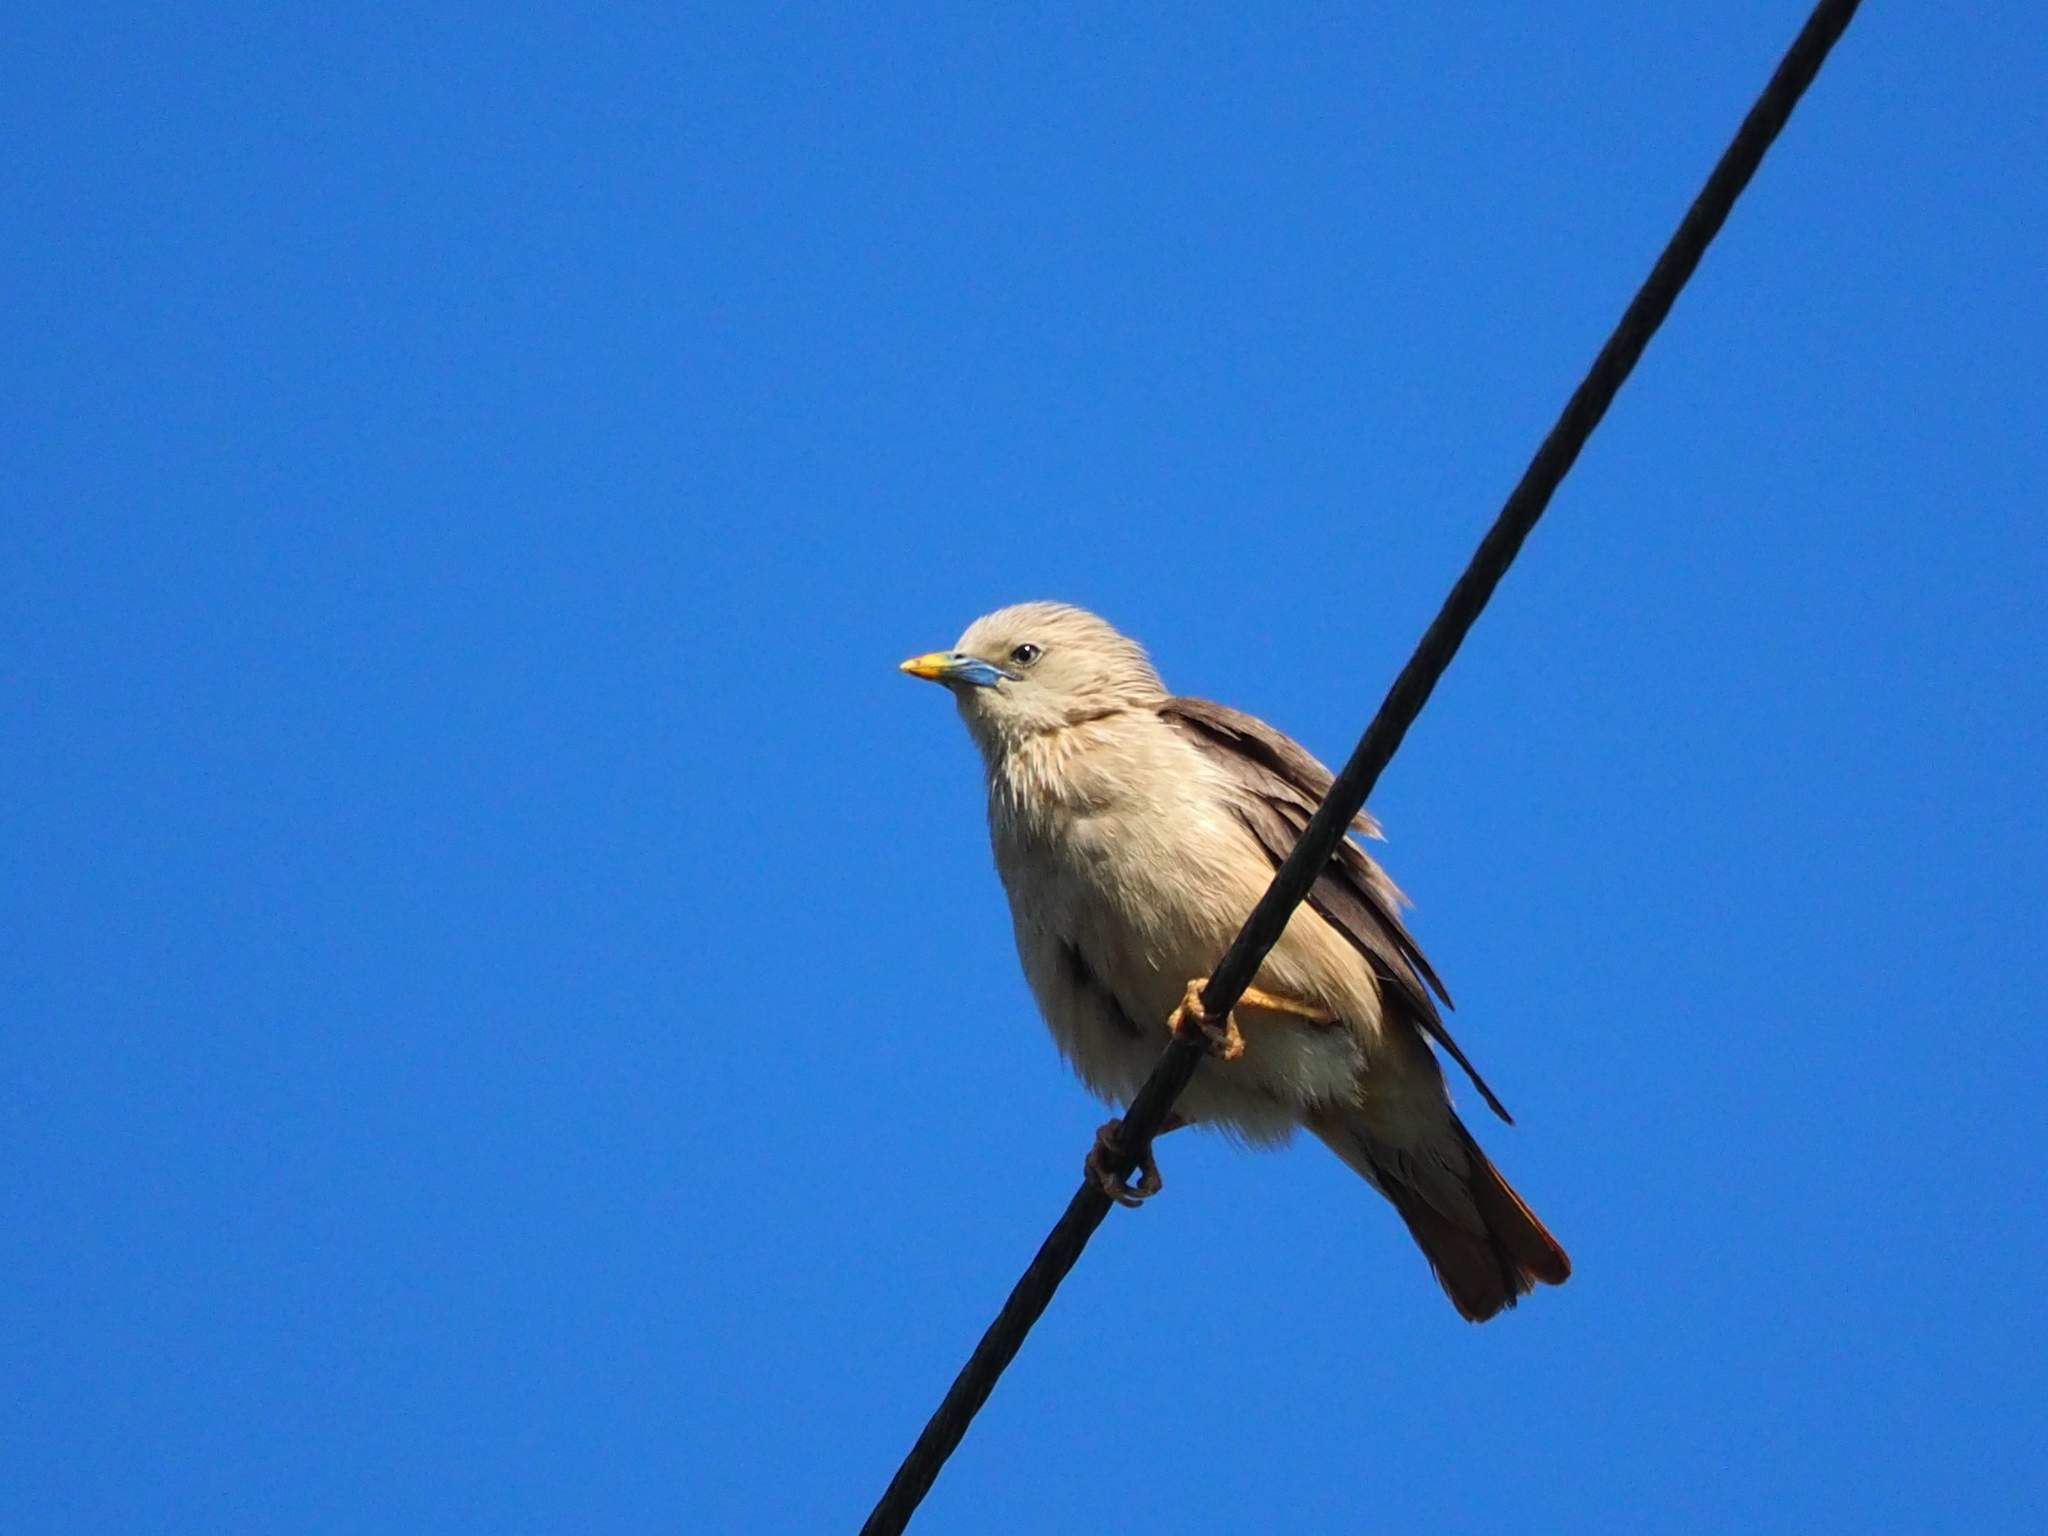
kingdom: Animalia
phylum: Chordata
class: Aves
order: Passeriformes
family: Sturnidae
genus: Sturnia
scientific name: Sturnia malabarica
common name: Chestnut-tailed starling
